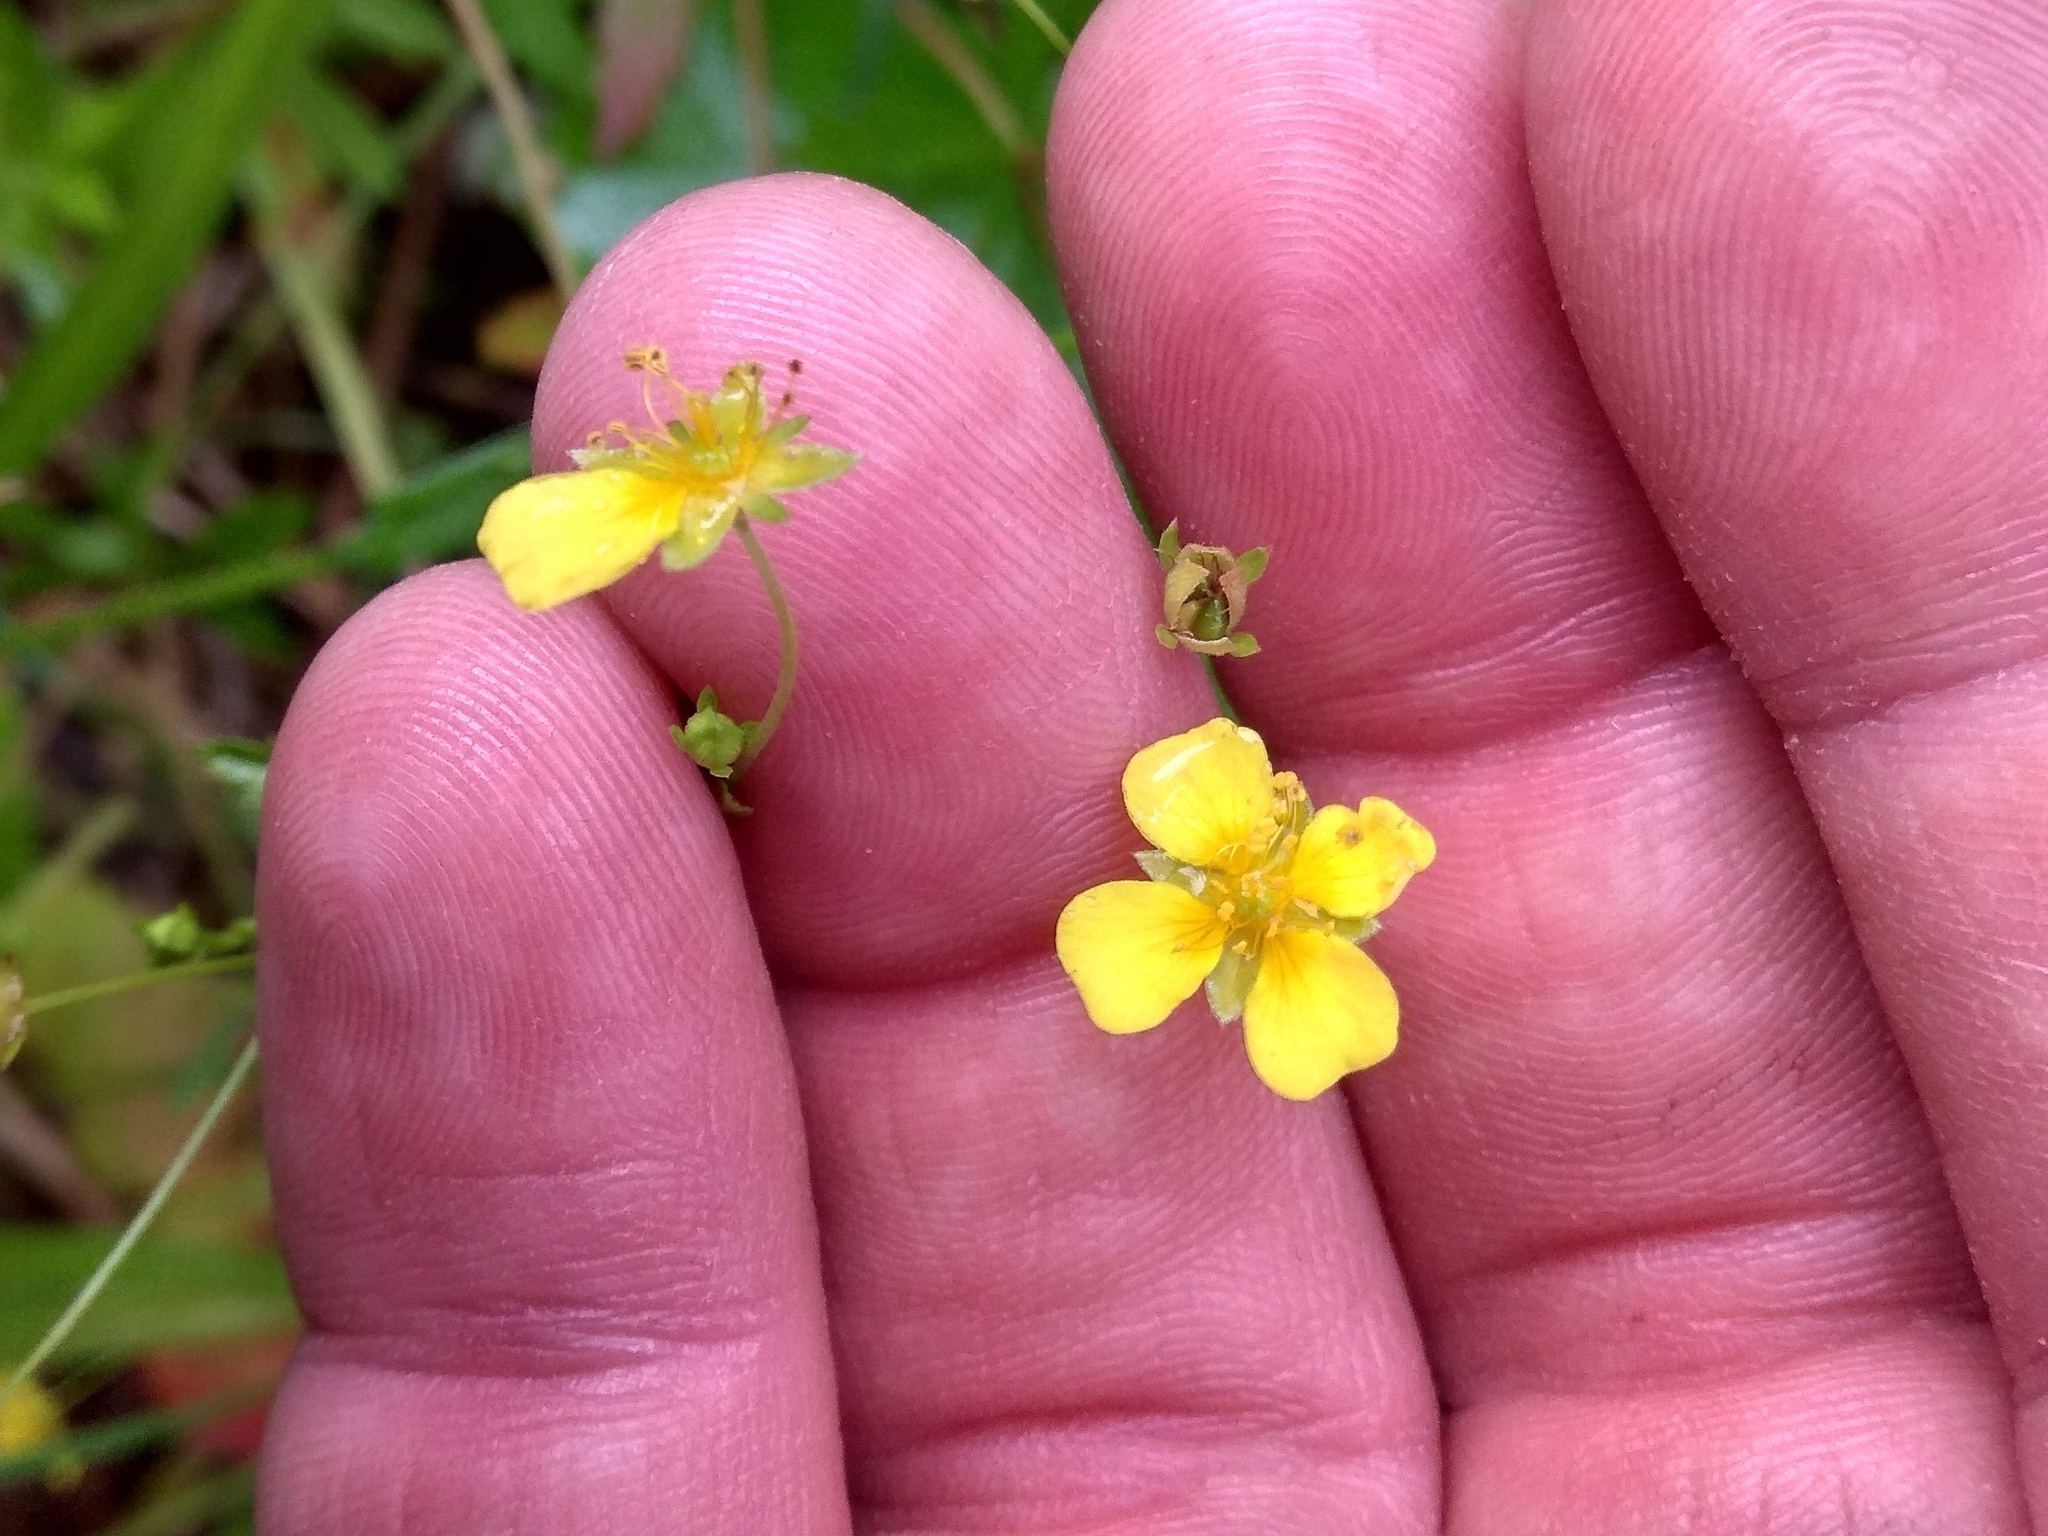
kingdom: Plantae
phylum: Tracheophyta
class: Magnoliopsida
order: Rosales
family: Rosaceae
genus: Potentilla
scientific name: Potentilla erecta
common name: Tormentil
